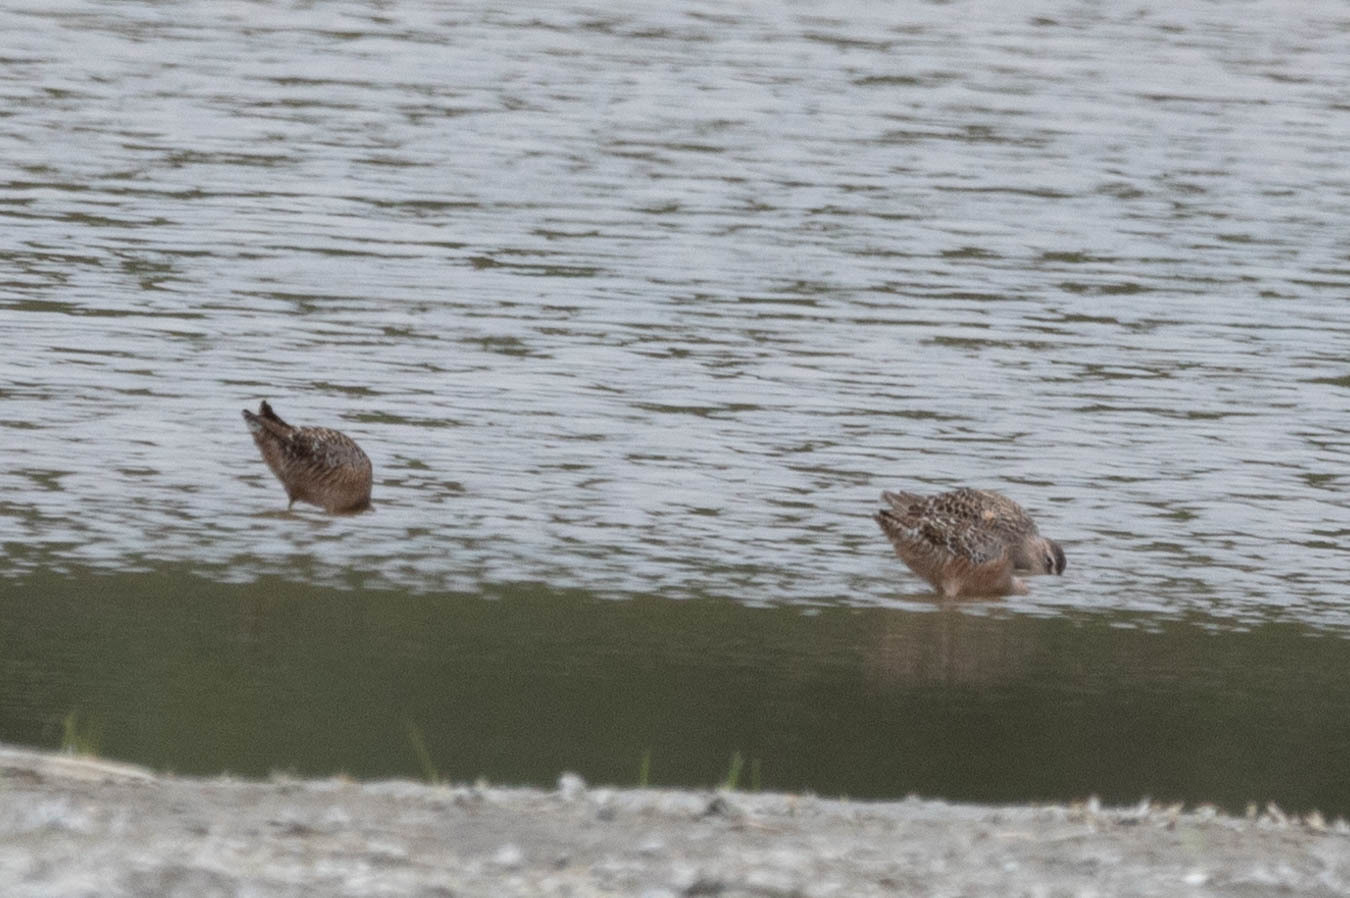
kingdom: Animalia
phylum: Chordata
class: Aves
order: Charadriiformes
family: Scolopacidae
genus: Limnodromus
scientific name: Limnodromus scolopaceus
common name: Long-billed dowitcher
